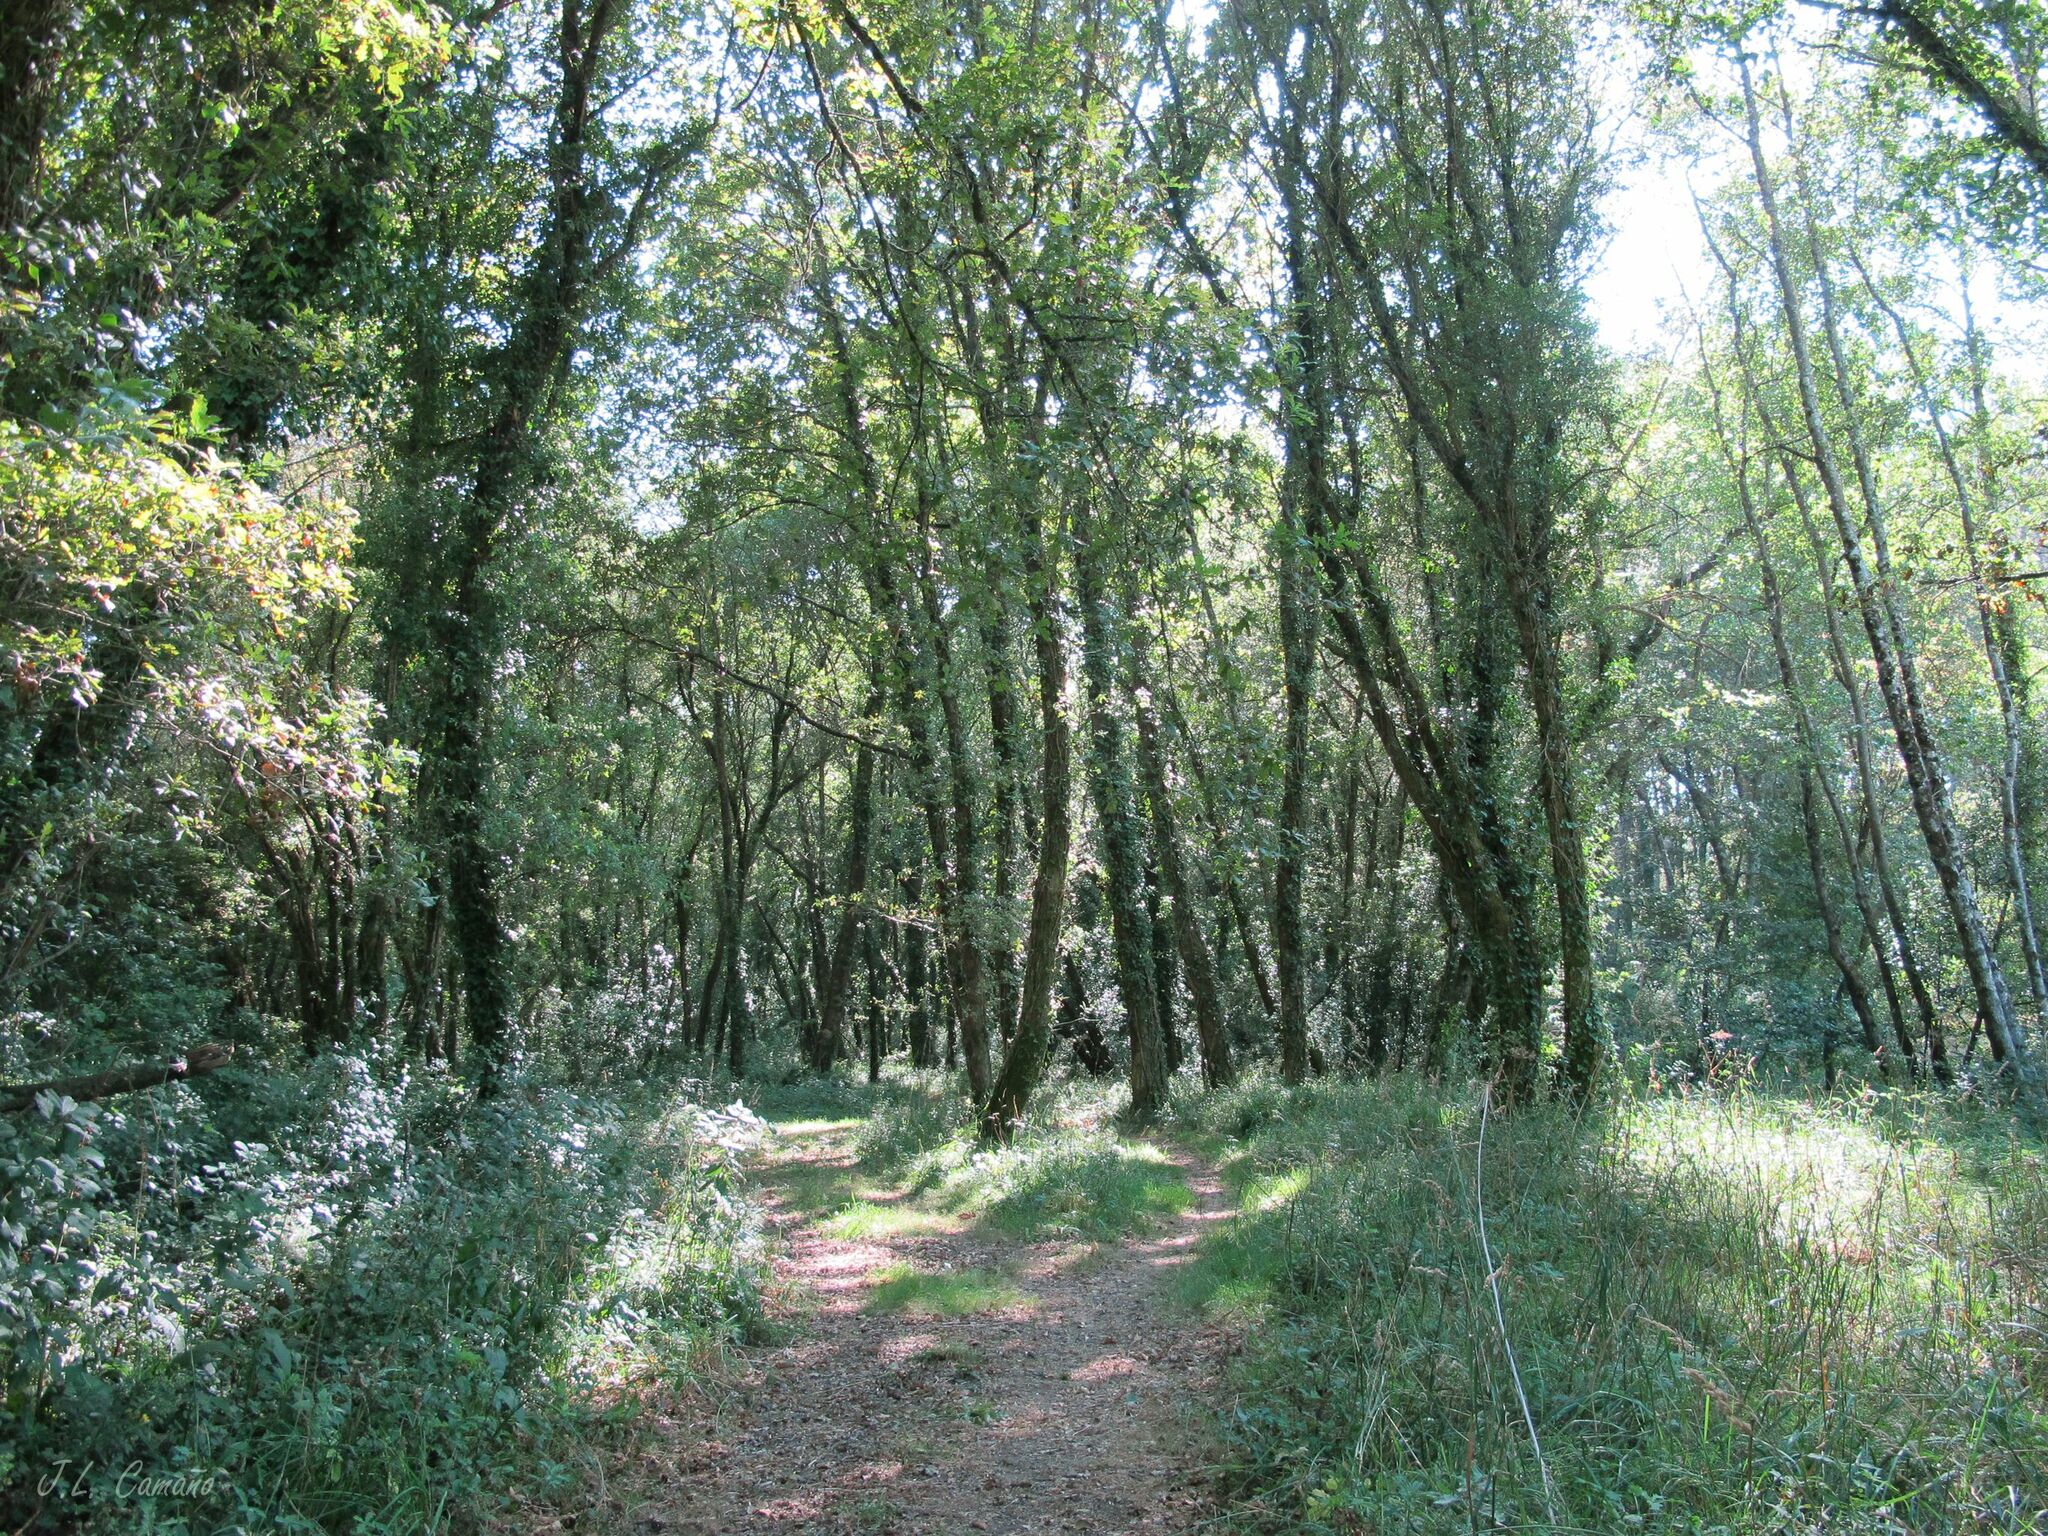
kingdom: Plantae
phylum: Bryophyta
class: Bryopsida
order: Hypnales
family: Brachytheciaceae
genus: Kindbergia
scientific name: Kindbergia praelonga
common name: Slender beaked moss
